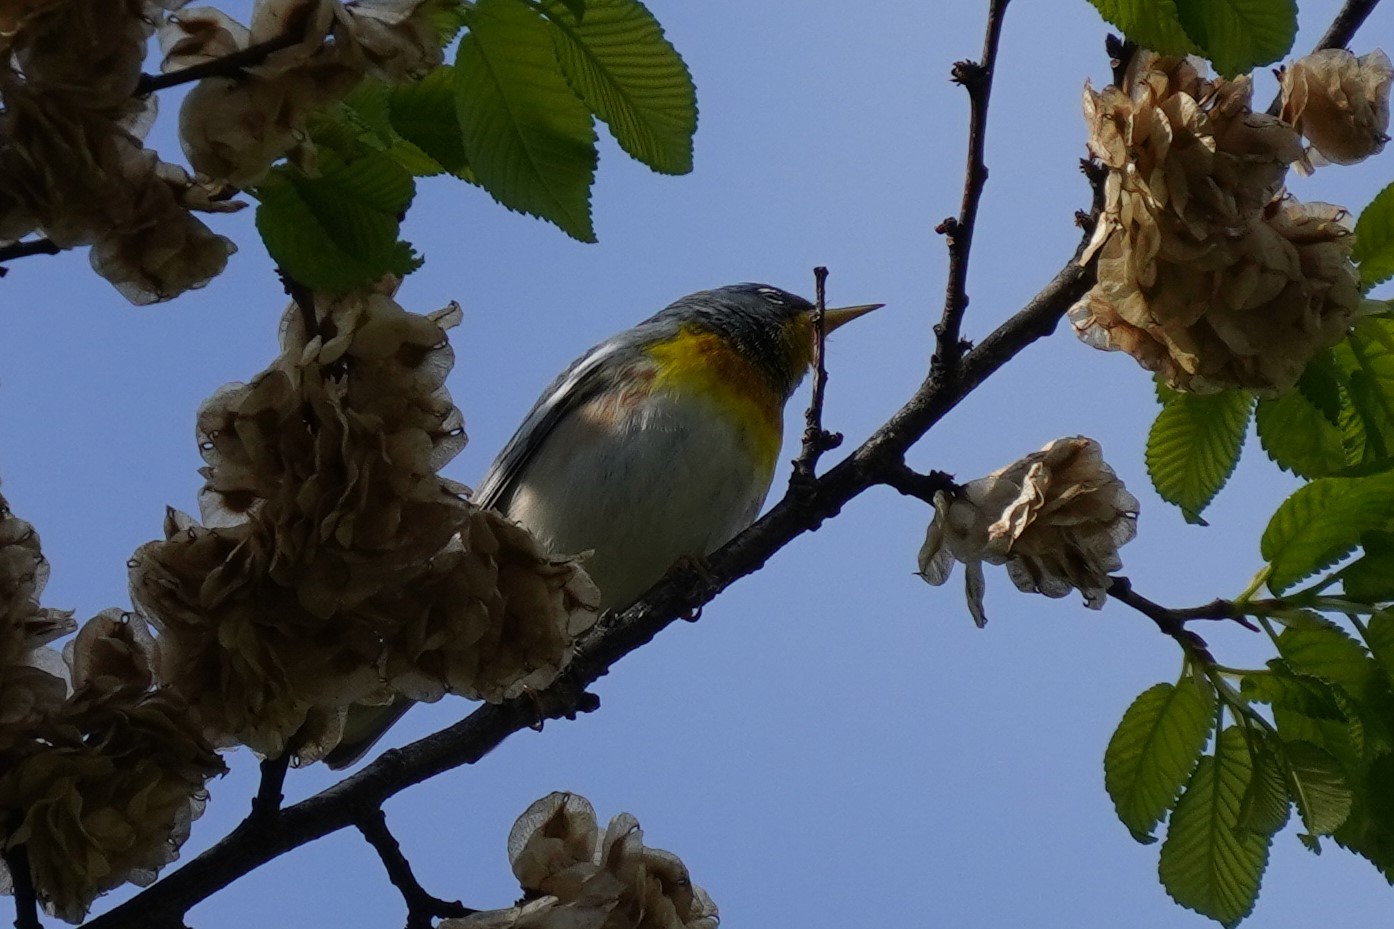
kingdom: Animalia
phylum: Chordata
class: Aves
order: Passeriformes
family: Parulidae
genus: Setophaga
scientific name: Setophaga americana
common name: Northern parula
